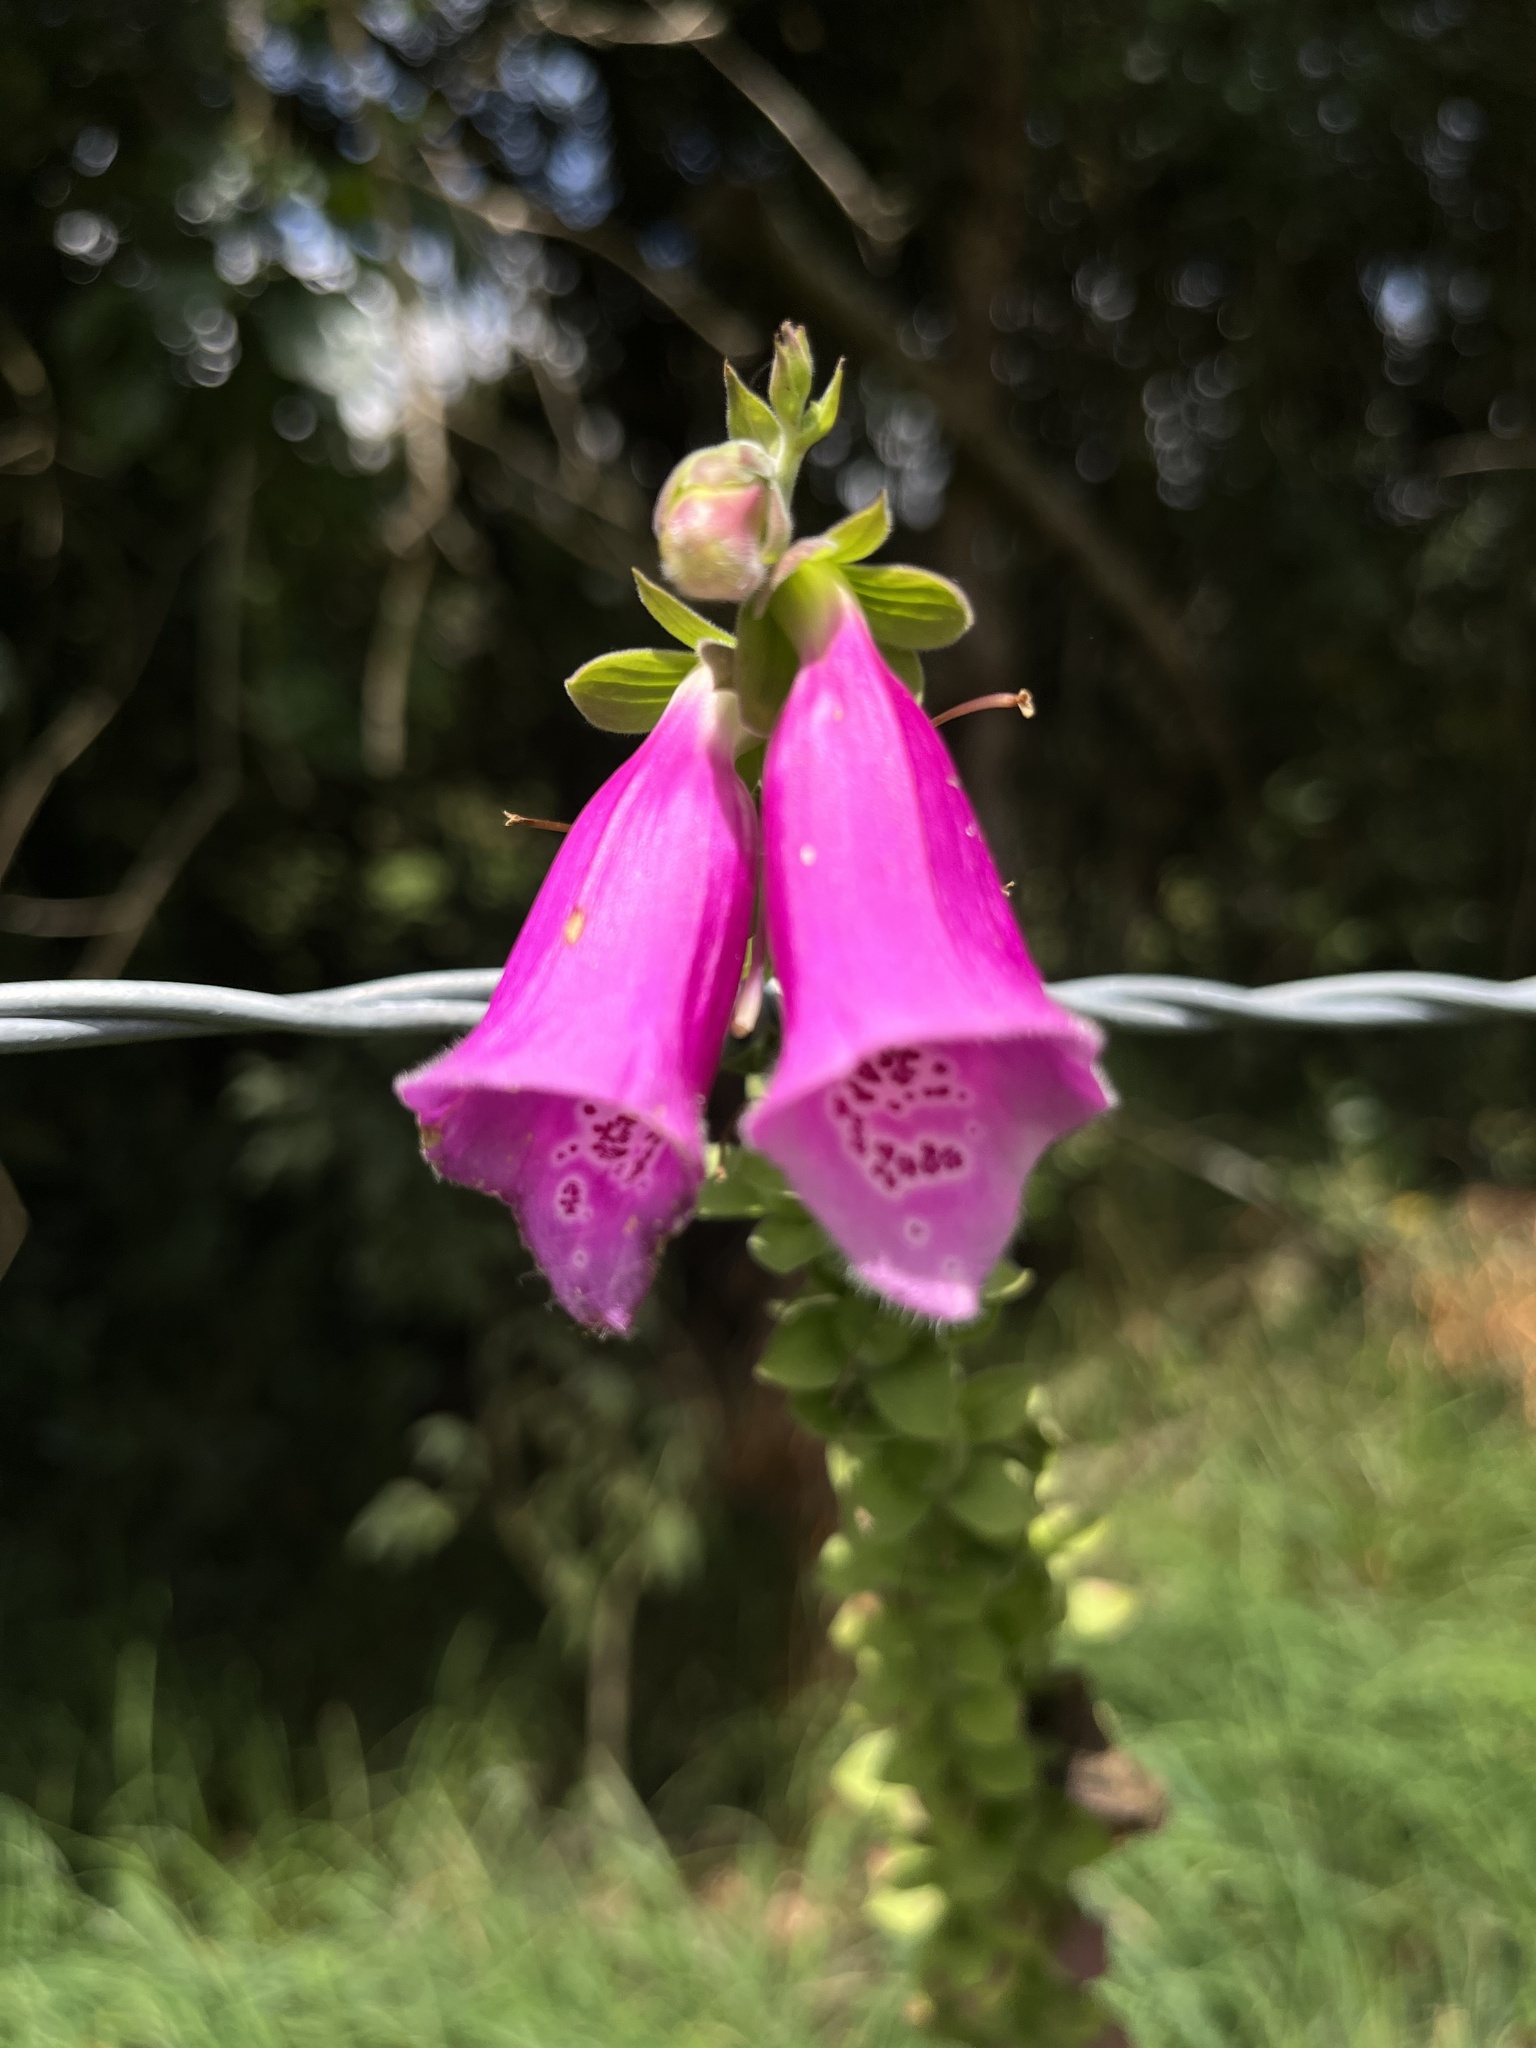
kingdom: Plantae
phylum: Tracheophyta
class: Magnoliopsida
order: Lamiales
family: Plantaginaceae
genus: Digitalis
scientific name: Digitalis purpurea
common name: Foxglove
